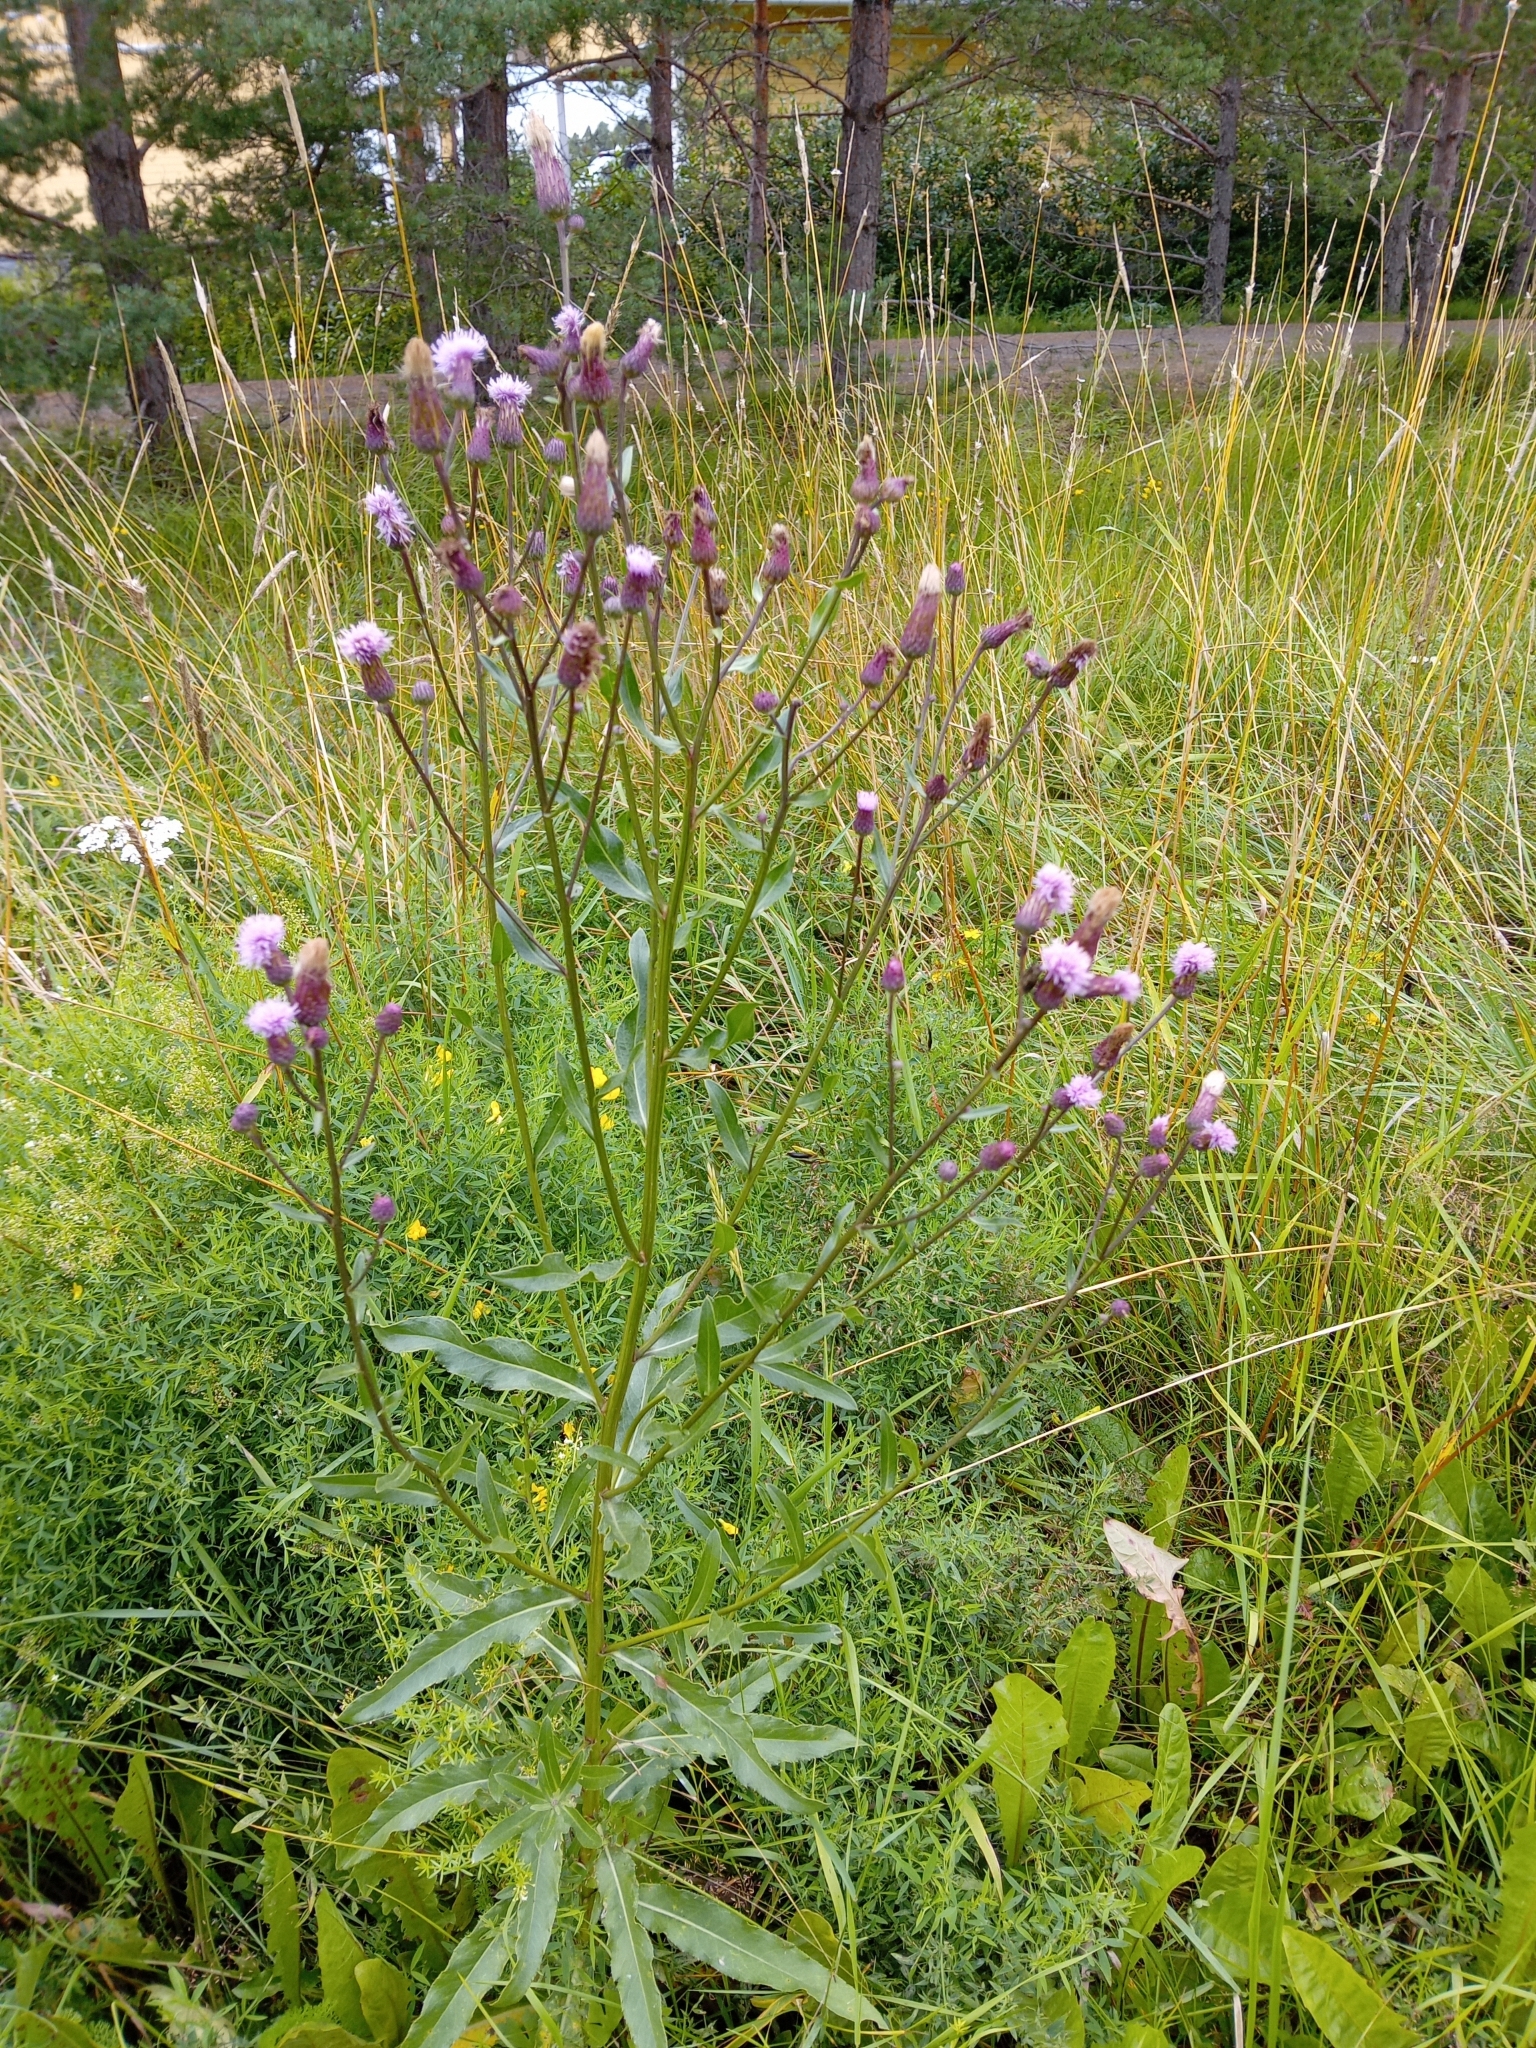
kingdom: Plantae
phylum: Tracheophyta
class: Magnoliopsida
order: Asterales
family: Asteraceae
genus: Cirsium
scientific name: Cirsium arvense
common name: Creeping thistle
